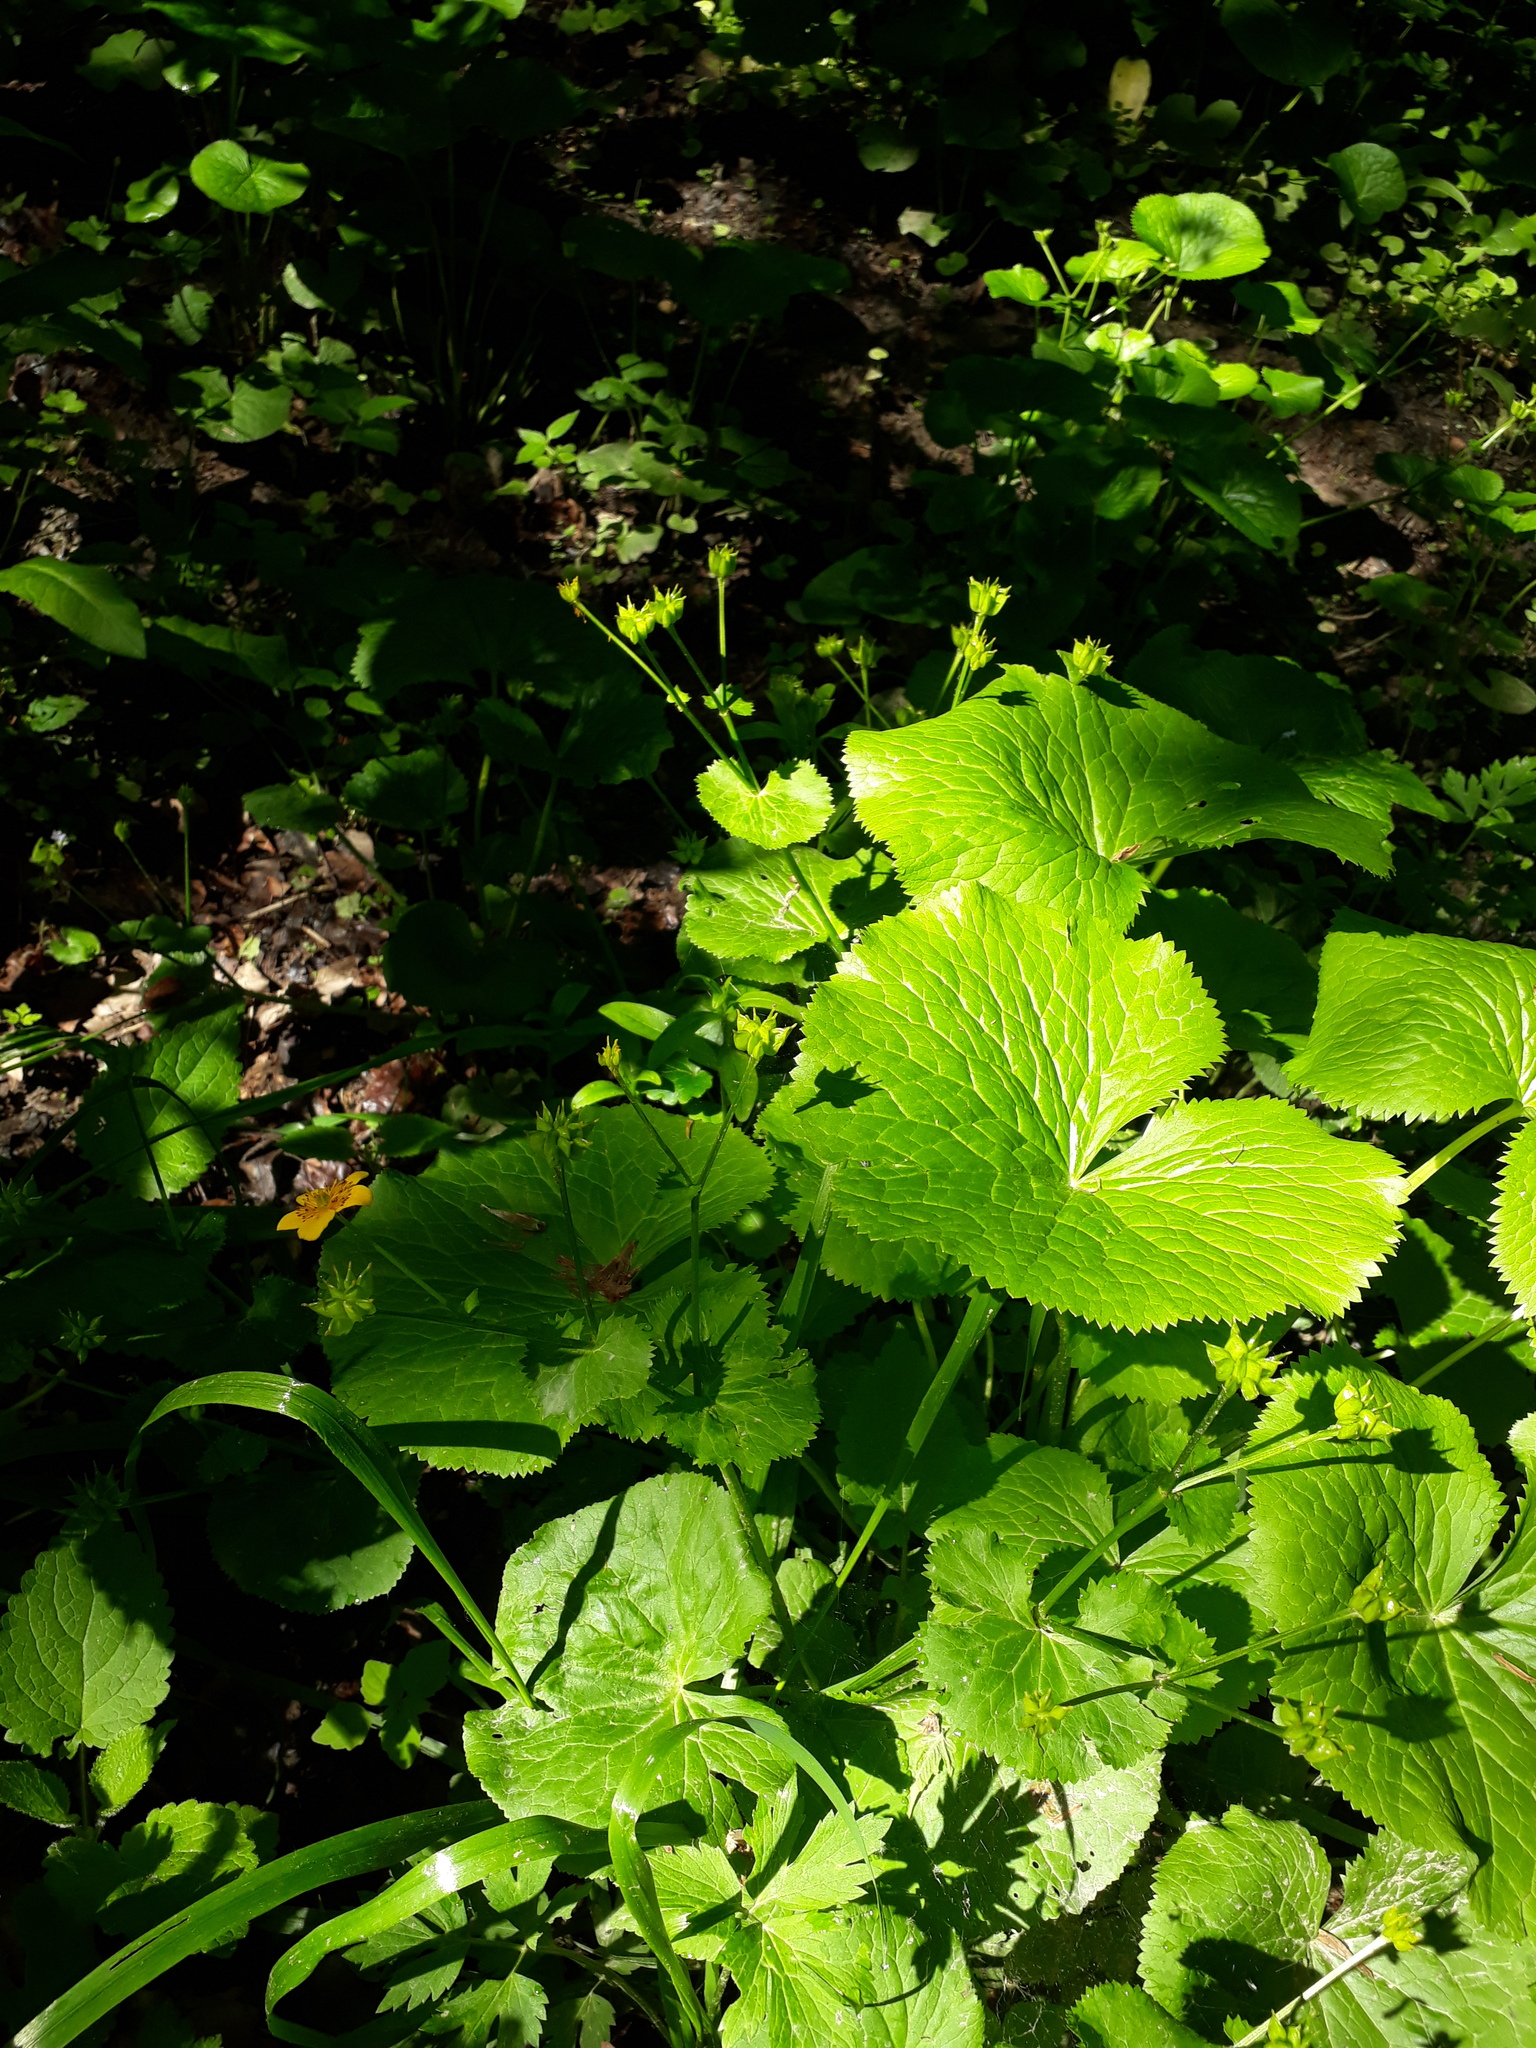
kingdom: Plantae
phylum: Tracheophyta
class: Magnoliopsida
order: Ranunculales
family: Ranunculaceae
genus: Caltha
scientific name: Caltha palustris
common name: Marsh marigold
